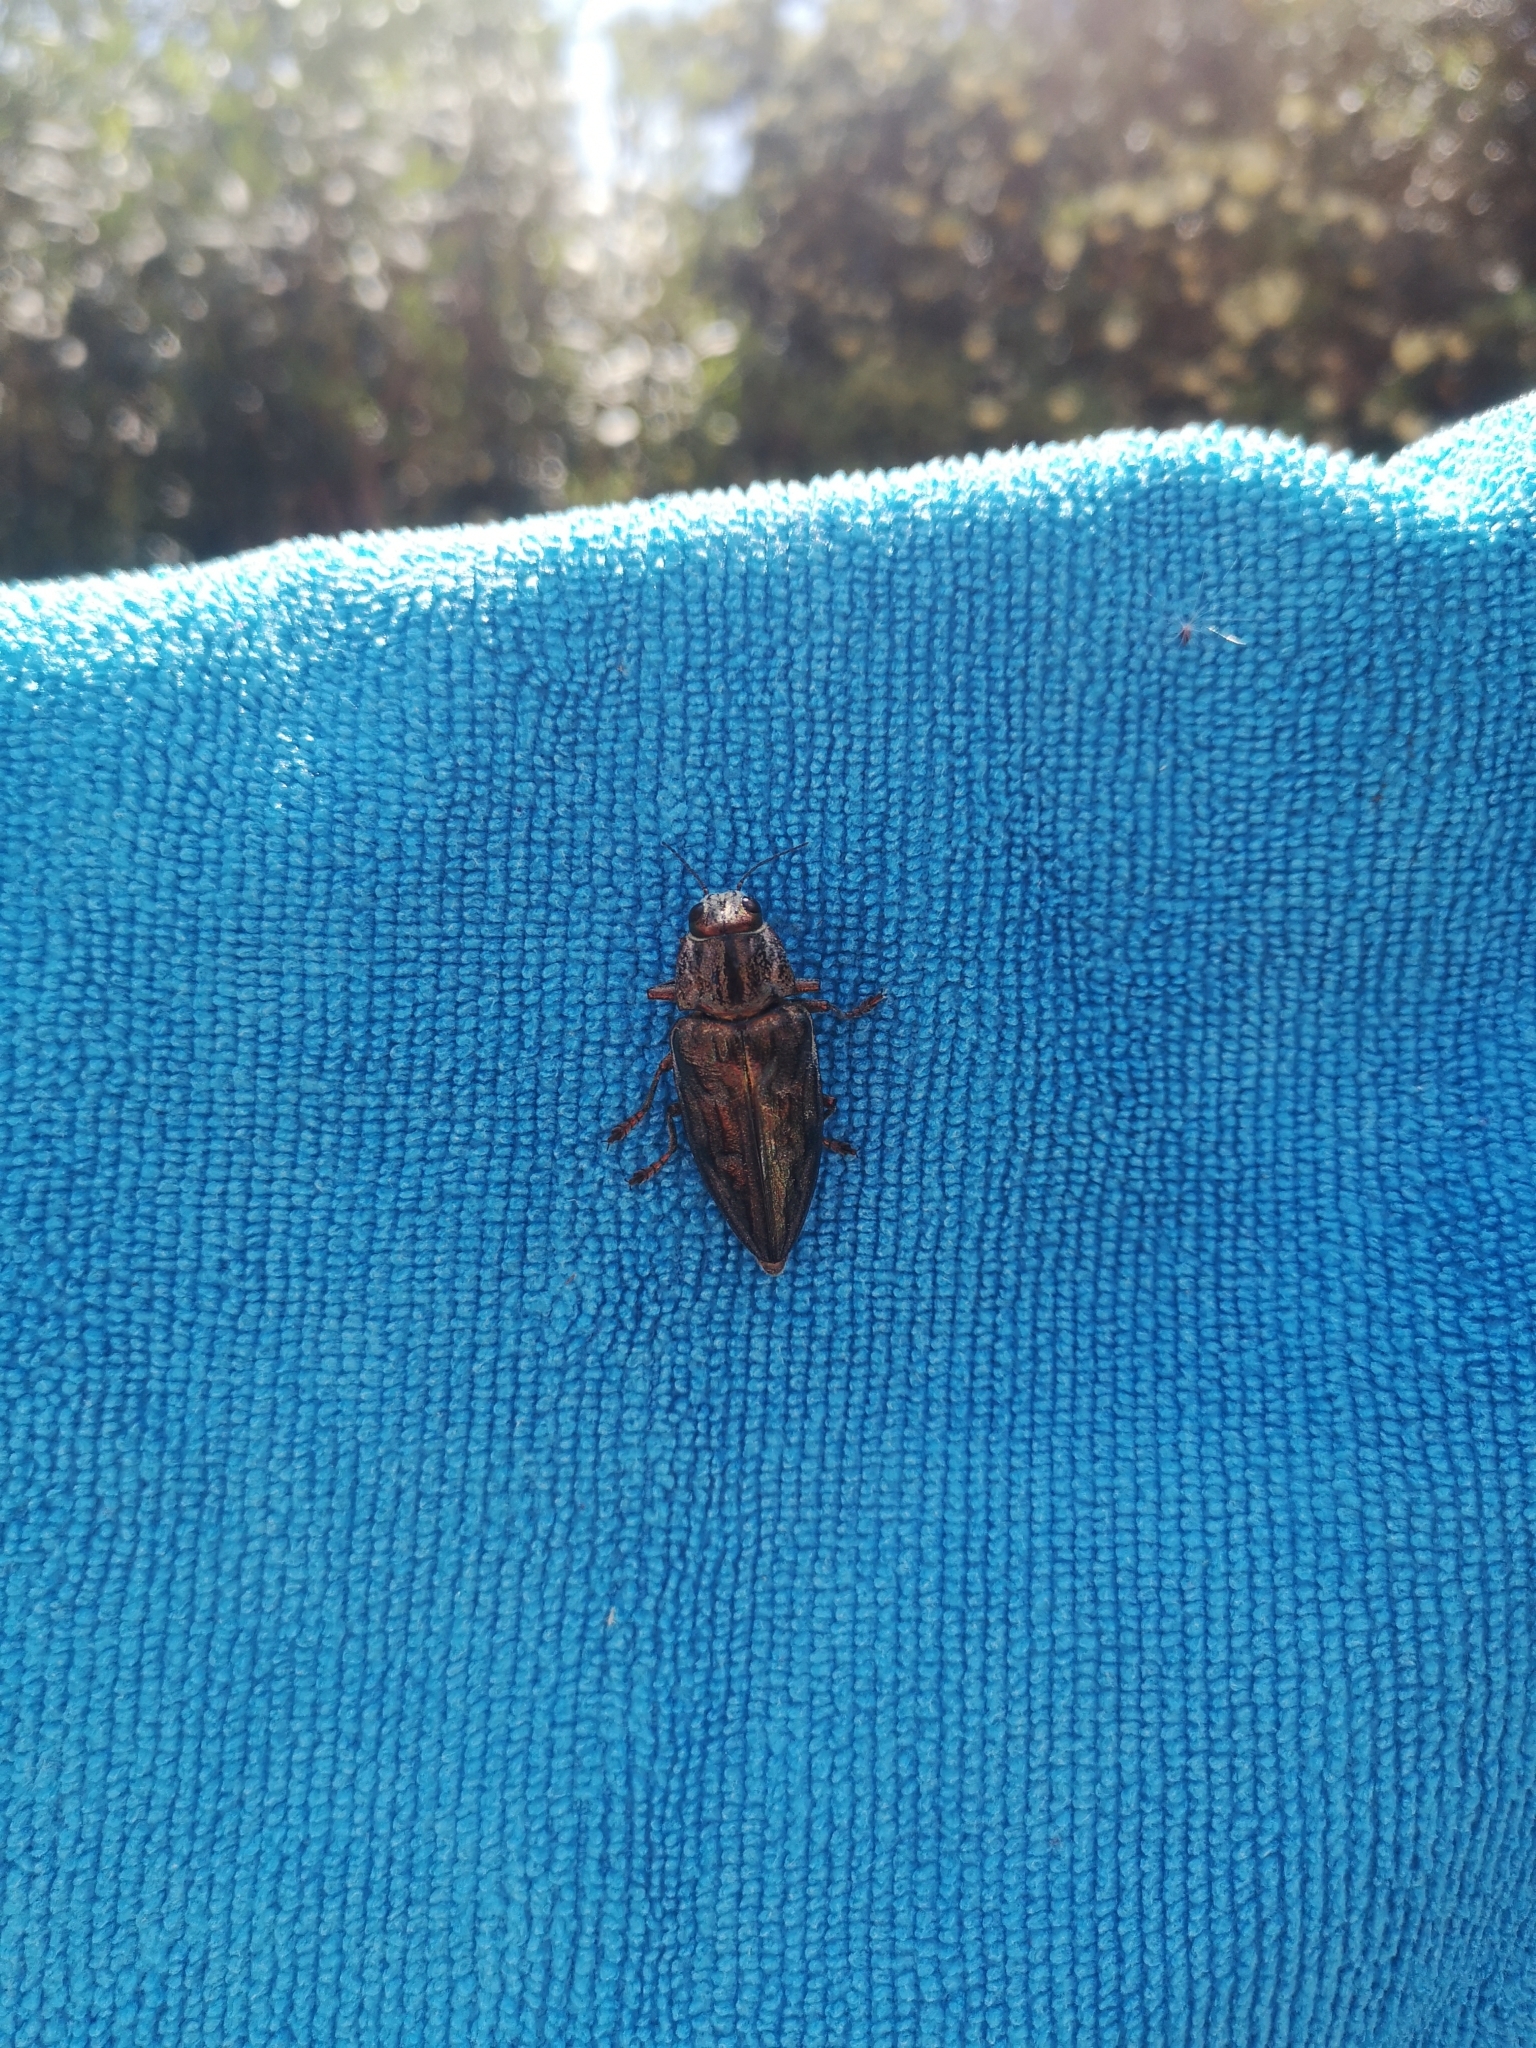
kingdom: Animalia
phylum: Arthropoda
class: Insecta
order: Coleoptera
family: Buprestidae
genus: Chalcophora
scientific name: Chalcophora massiliensis
